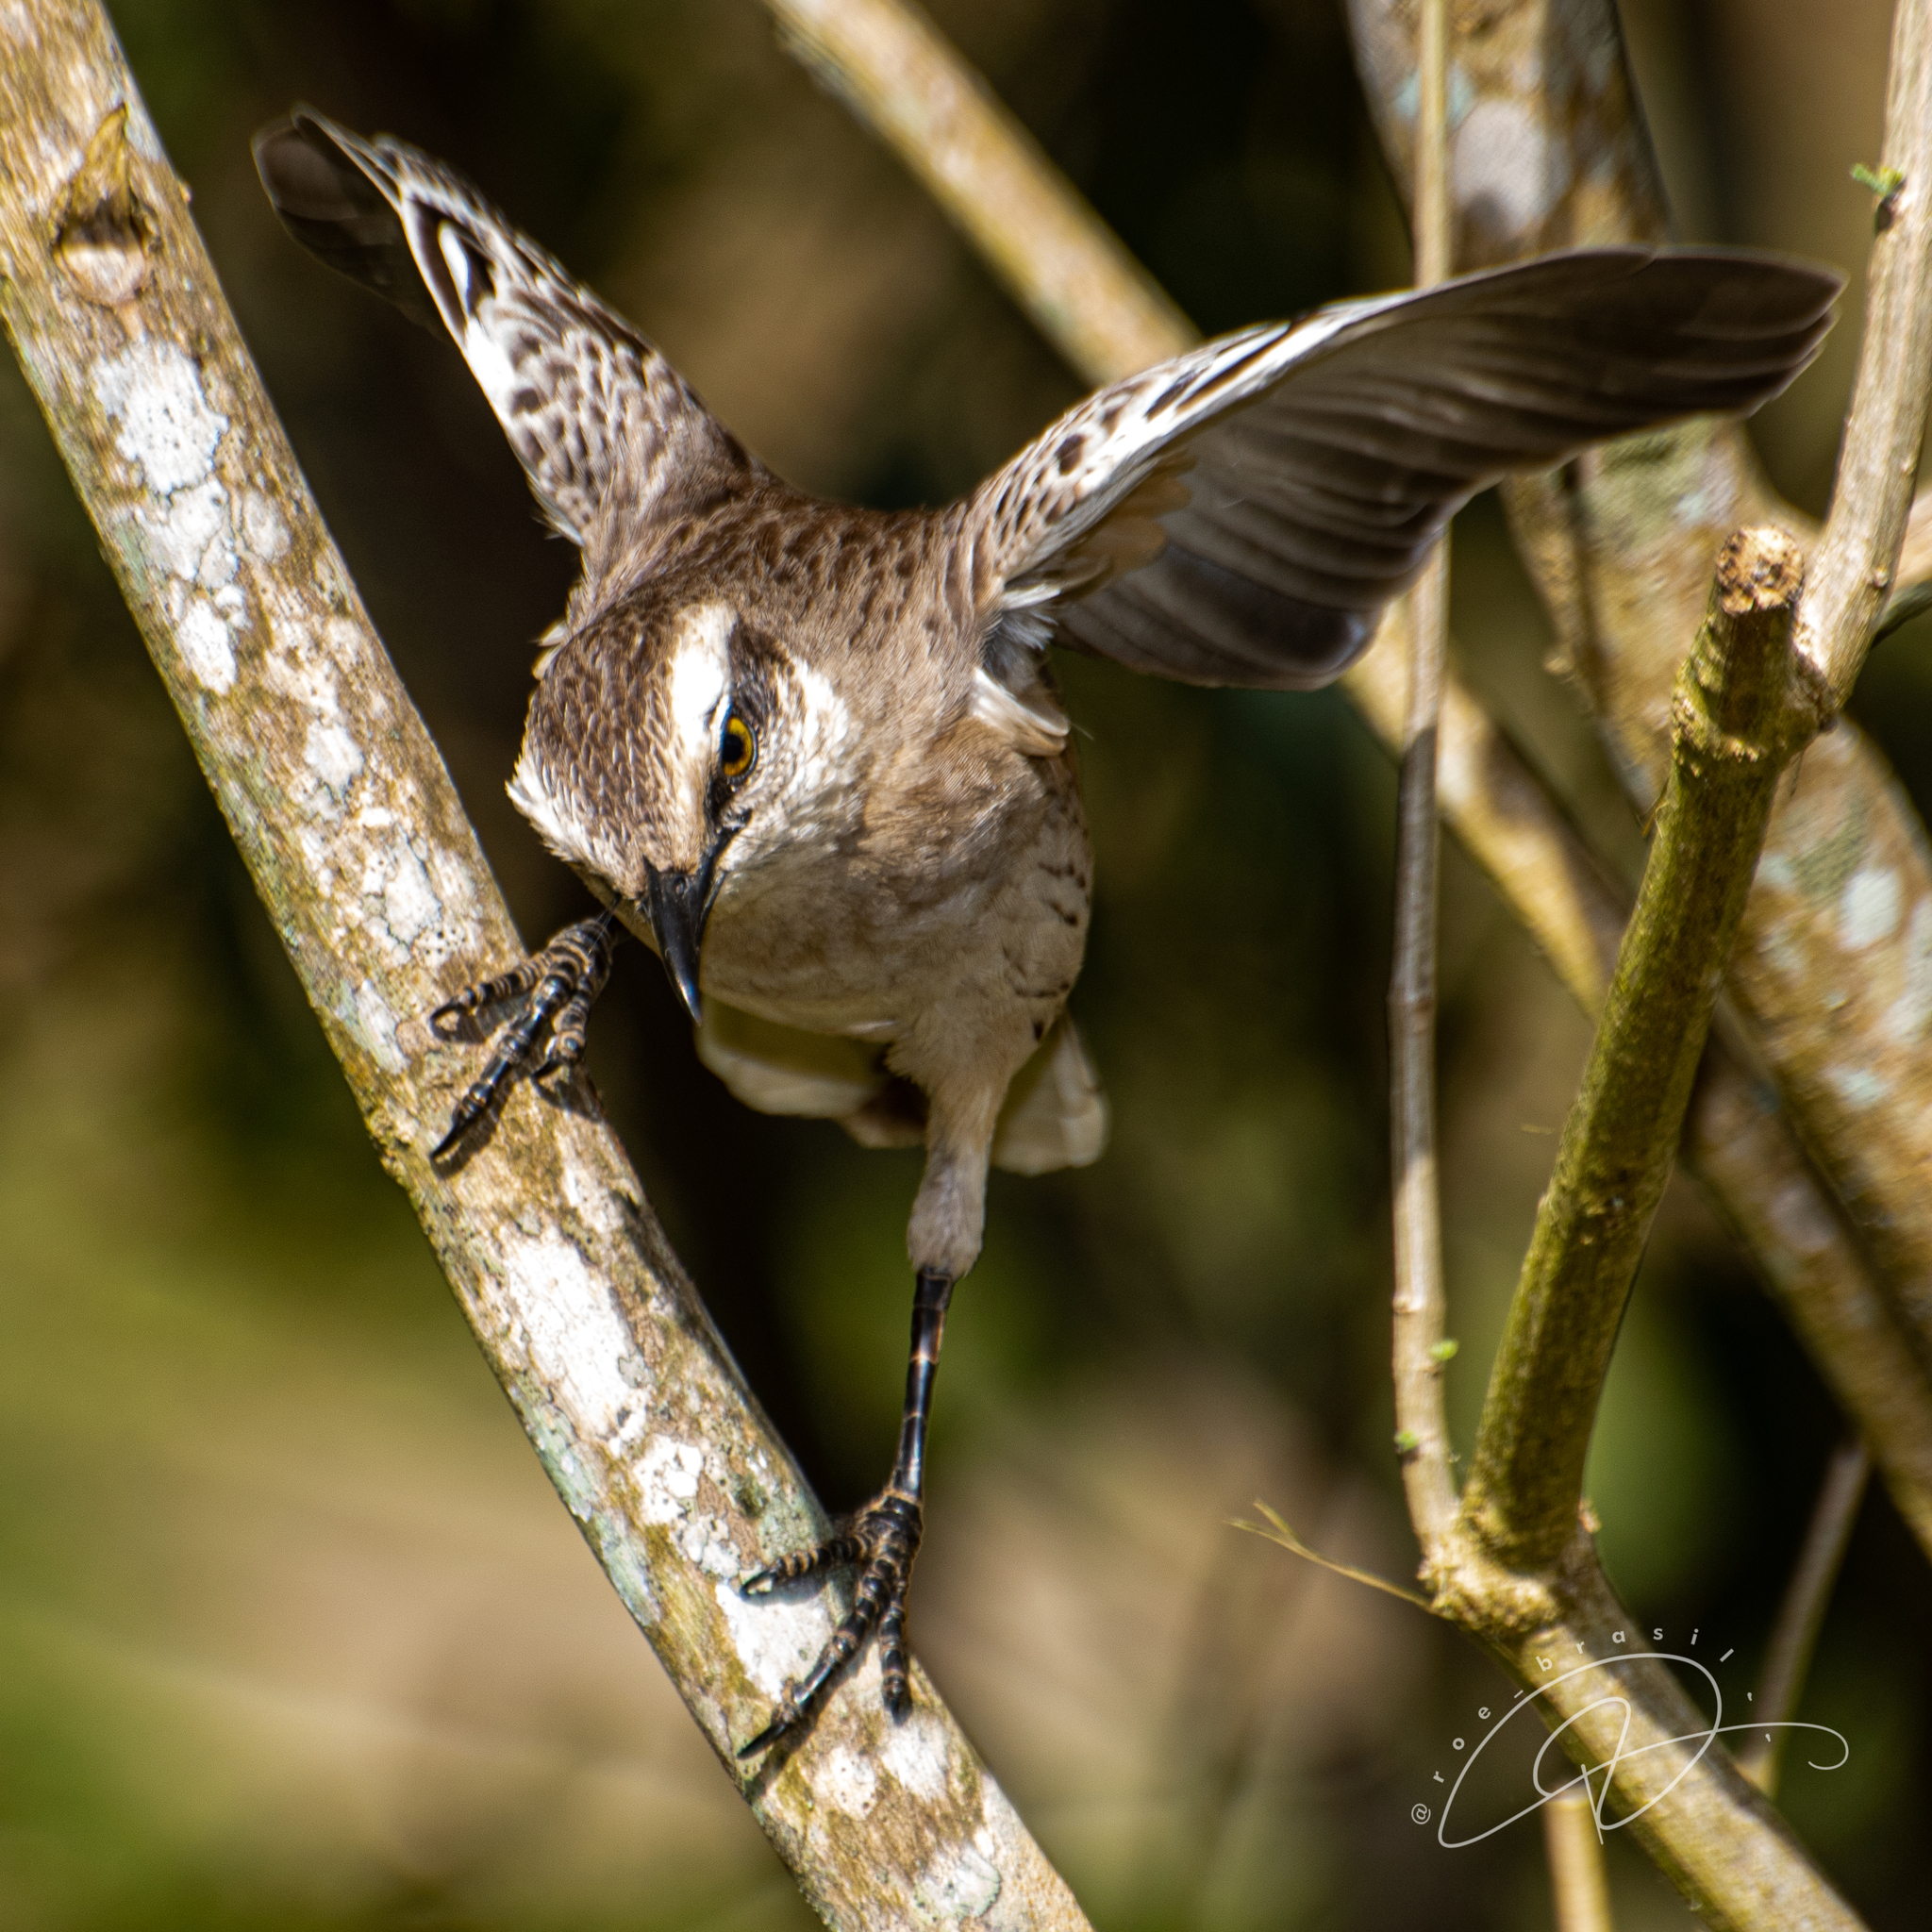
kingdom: Animalia
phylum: Chordata
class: Aves
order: Passeriformes
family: Mimidae
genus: Mimus
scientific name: Mimus saturninus
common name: Chalk-browed mockingbird
